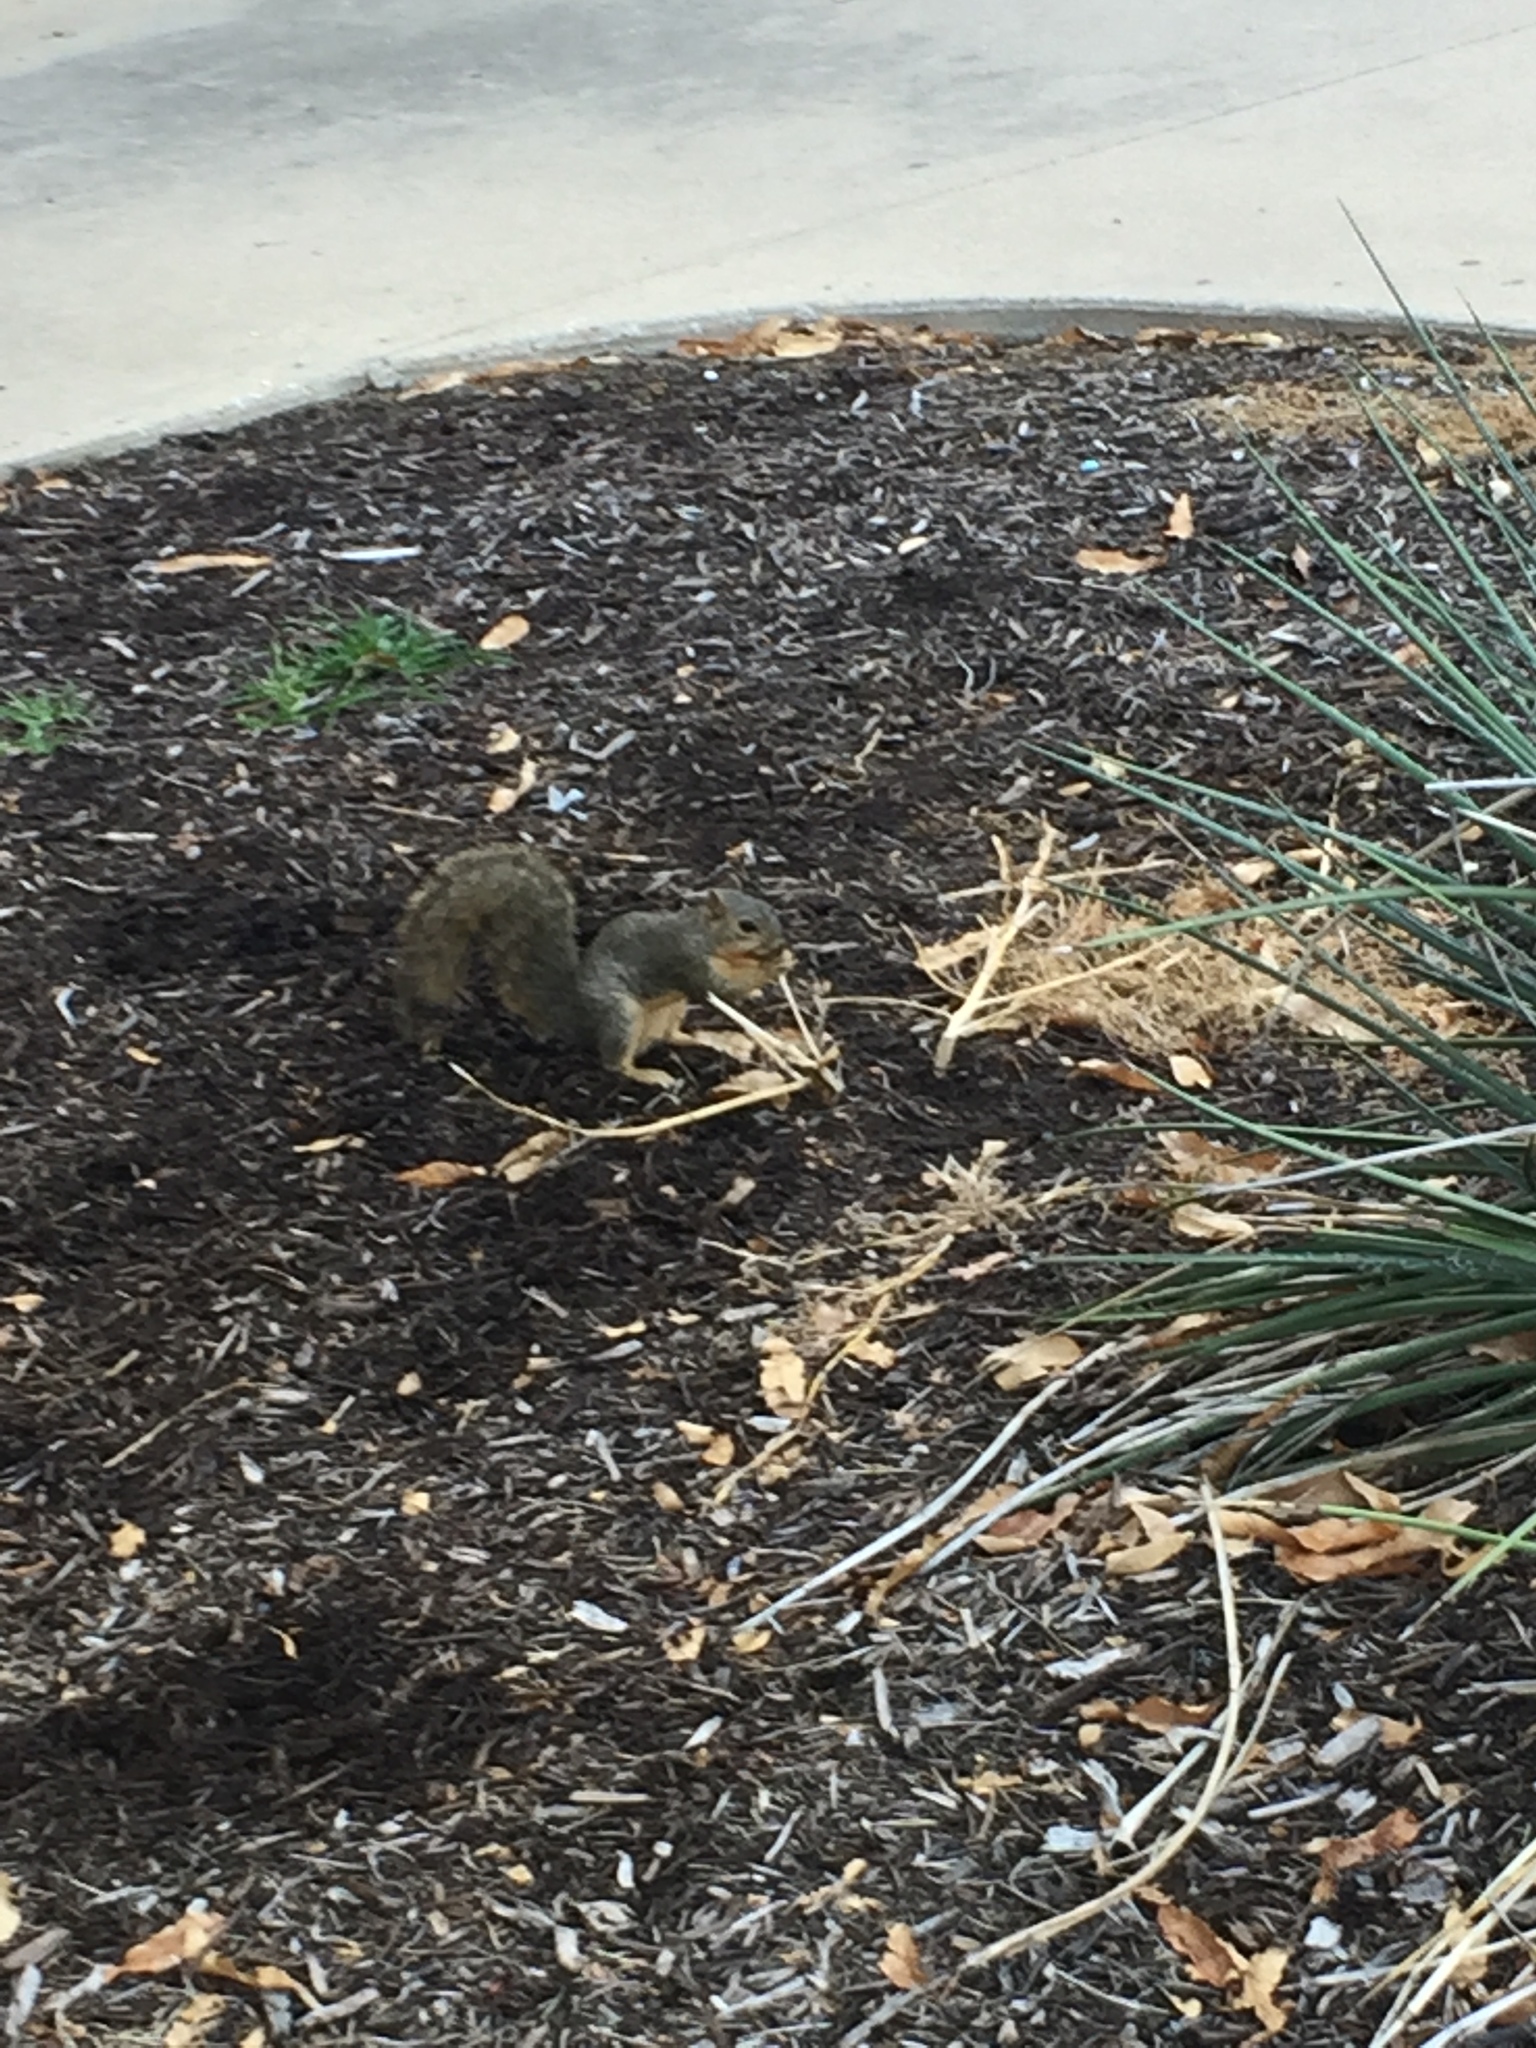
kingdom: Animalia
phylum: Chordata
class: Mammalia
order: Rodentia
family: Sciuridae
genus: Sciurus
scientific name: Sciurus niger
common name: Fox squirrel
